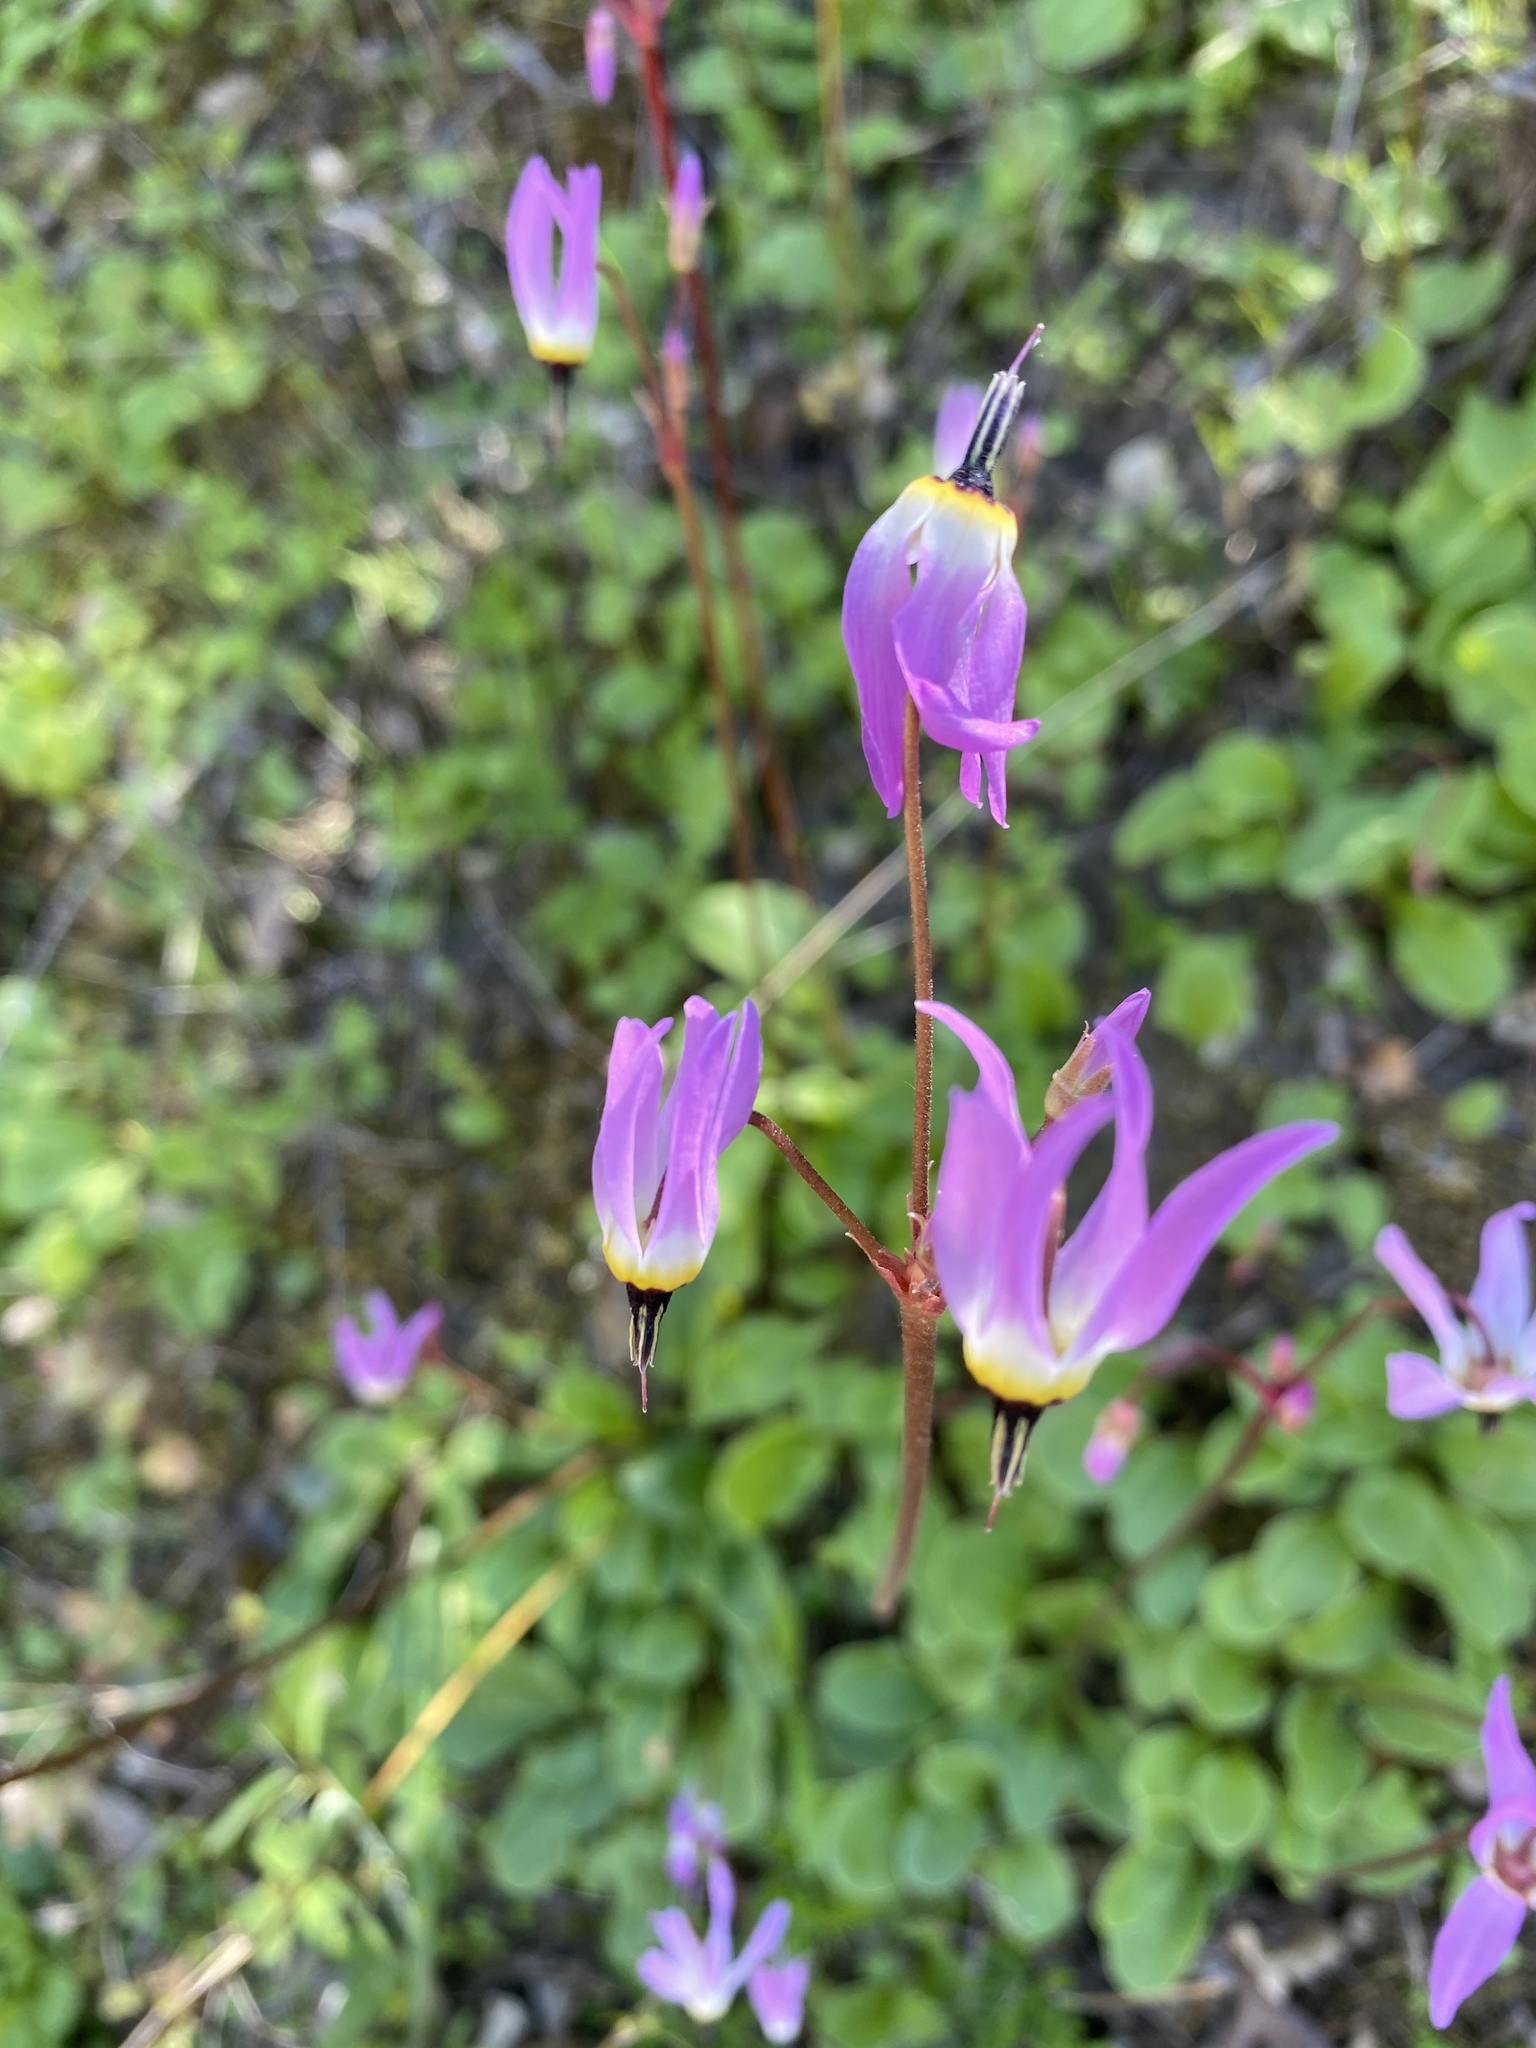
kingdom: Plantae
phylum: Tracheophyta
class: Magnoliopsida
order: Ericales
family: Primulaceae
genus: Dodecatheon
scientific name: Dodecatheon hendersonii
